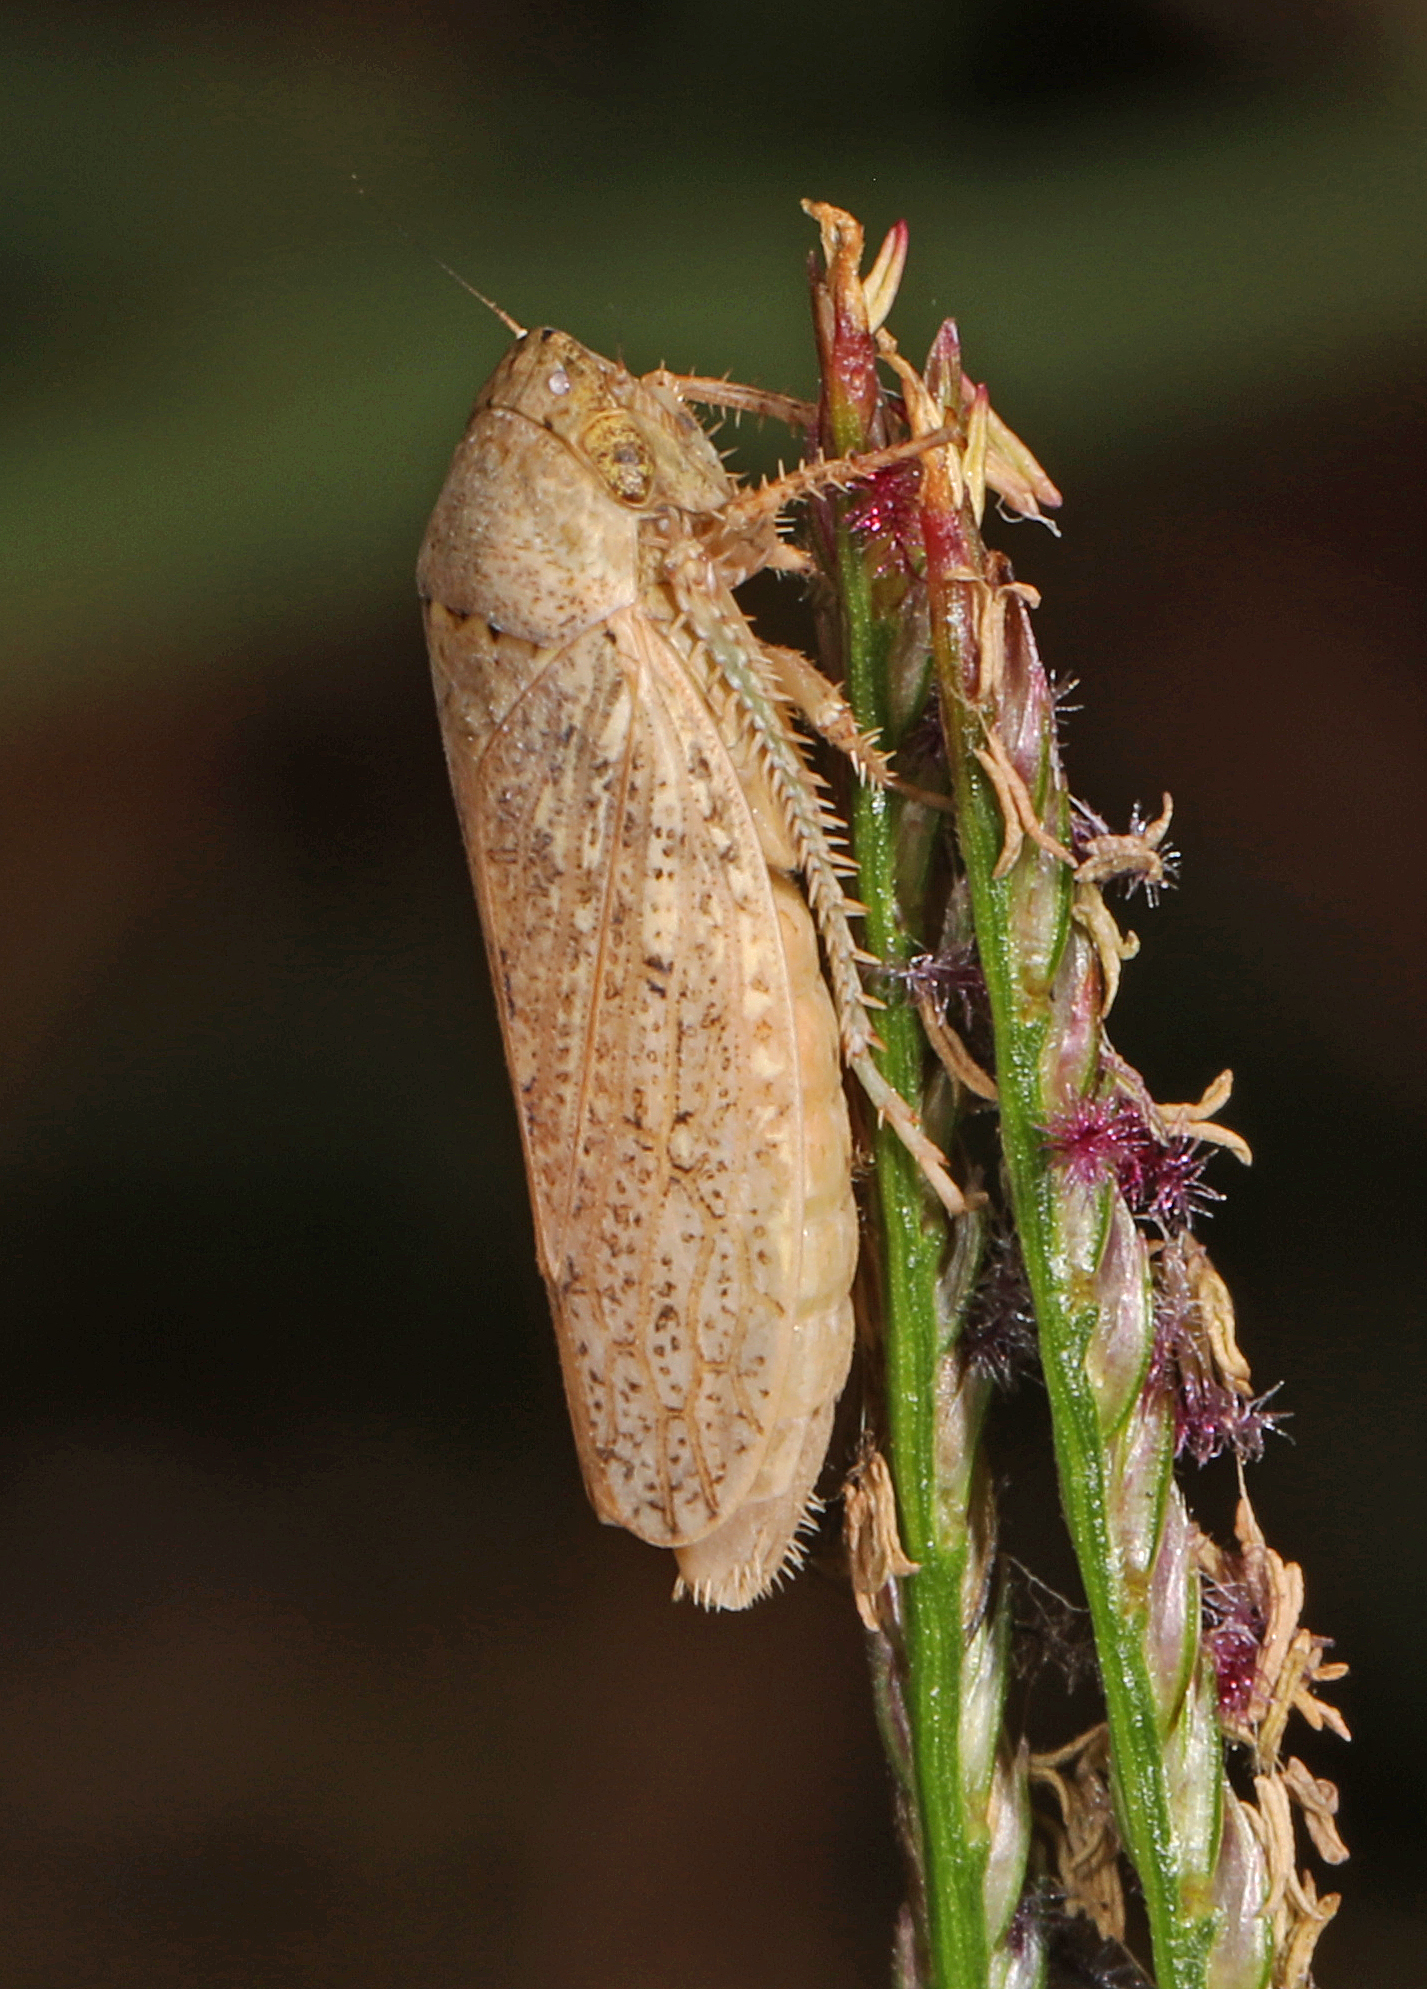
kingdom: Animalia
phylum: Arthropoda
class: Insecta
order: Hemiptera
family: Cicadellidae
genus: Curtara
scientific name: Curtara insularis
